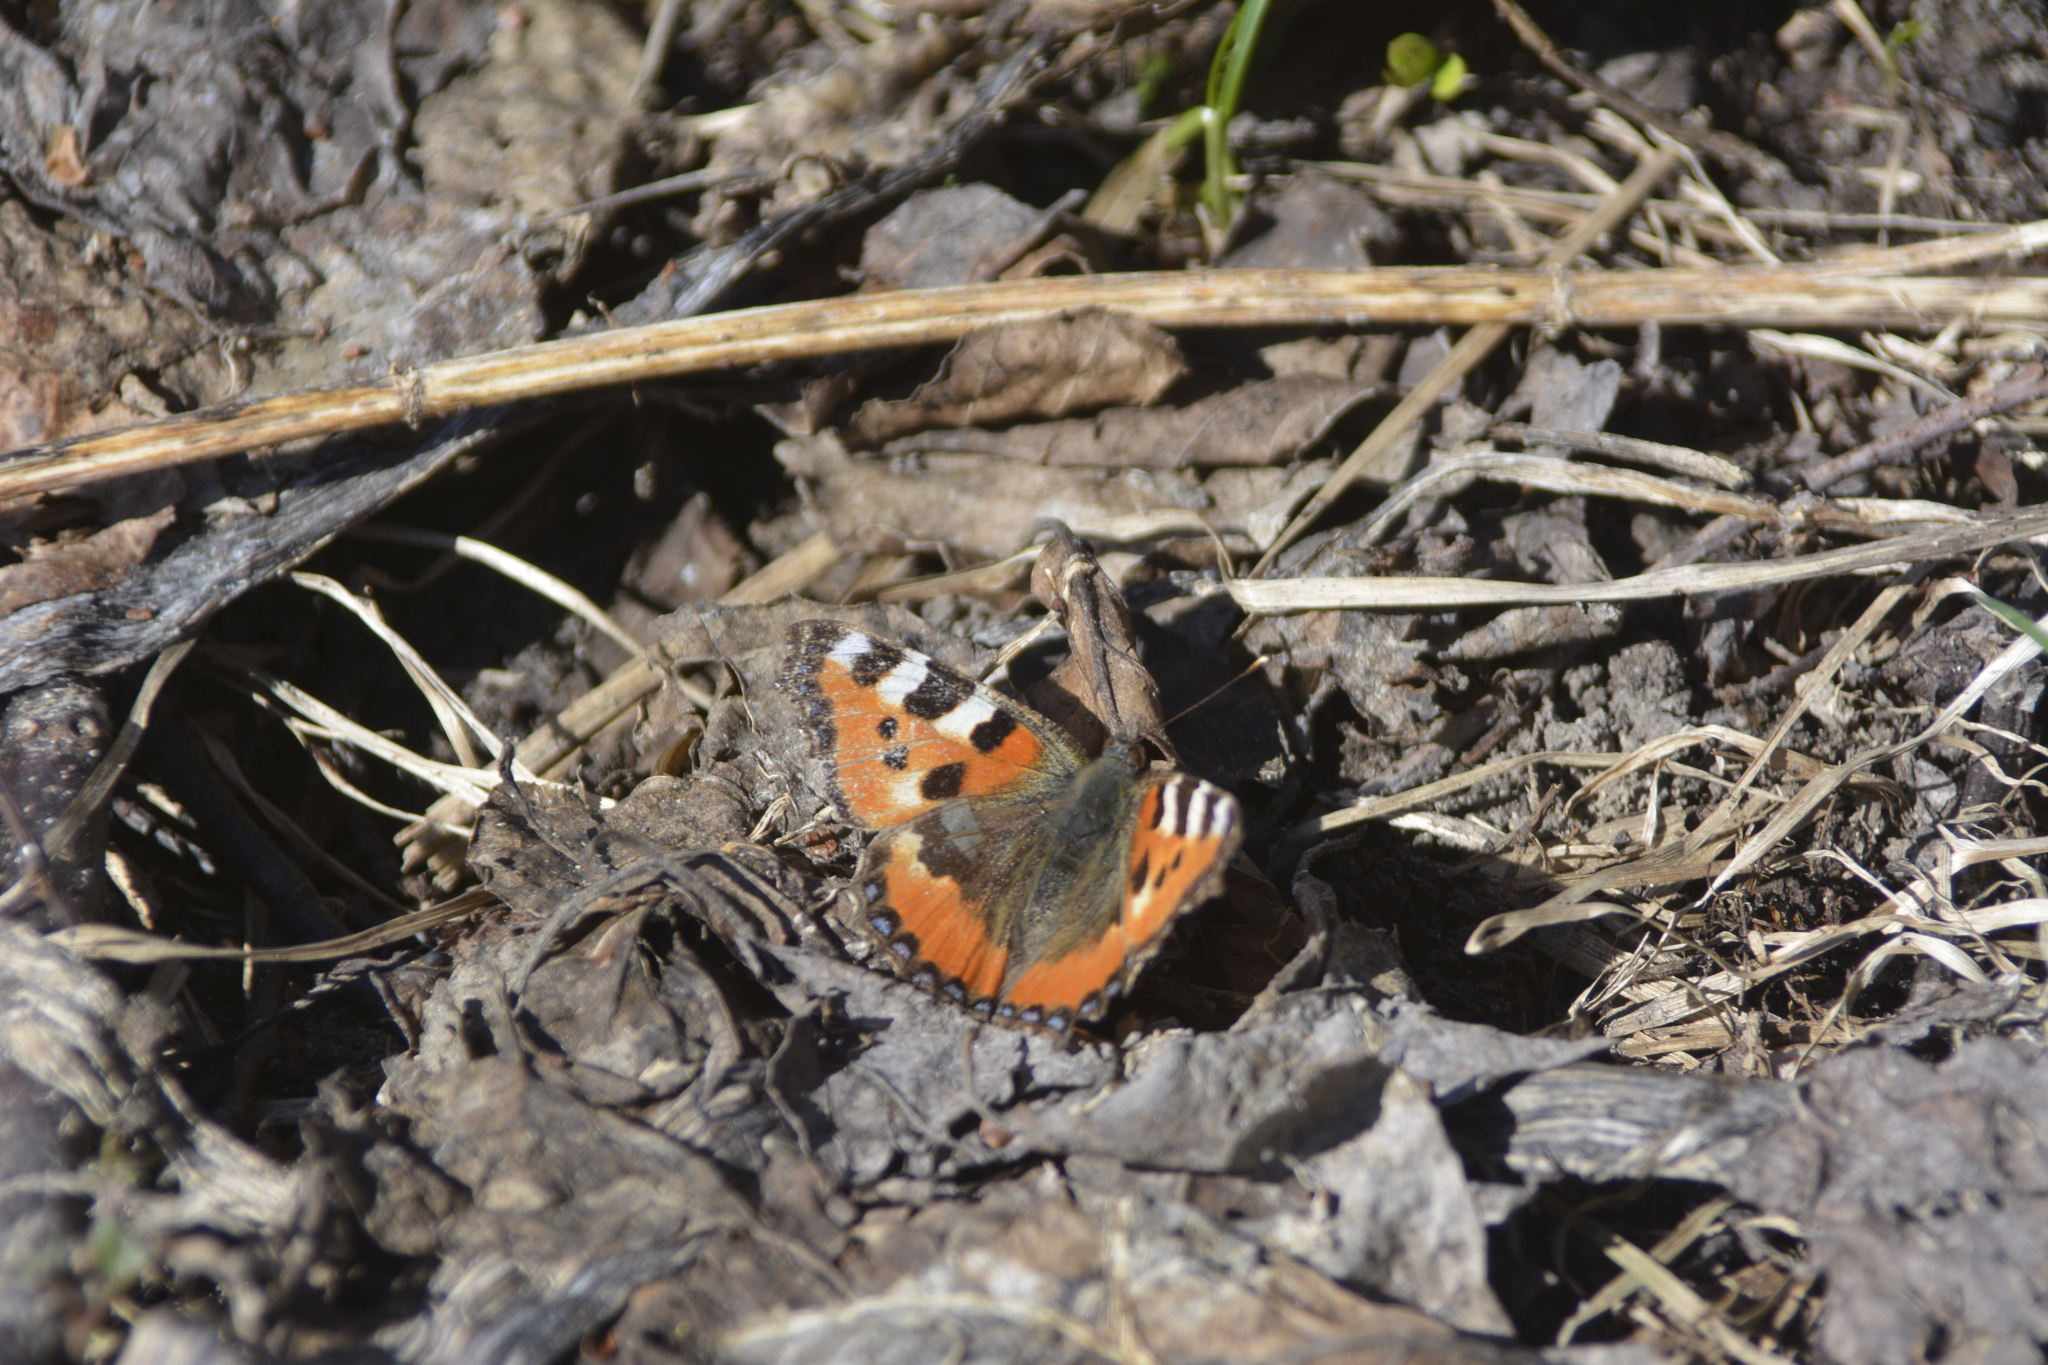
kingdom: Animalia
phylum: Arthropoda
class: Insecta
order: Lepidoptera
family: Nymphalidae
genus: Aglais
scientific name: Aglais urticae
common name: Small tortoiseshell
